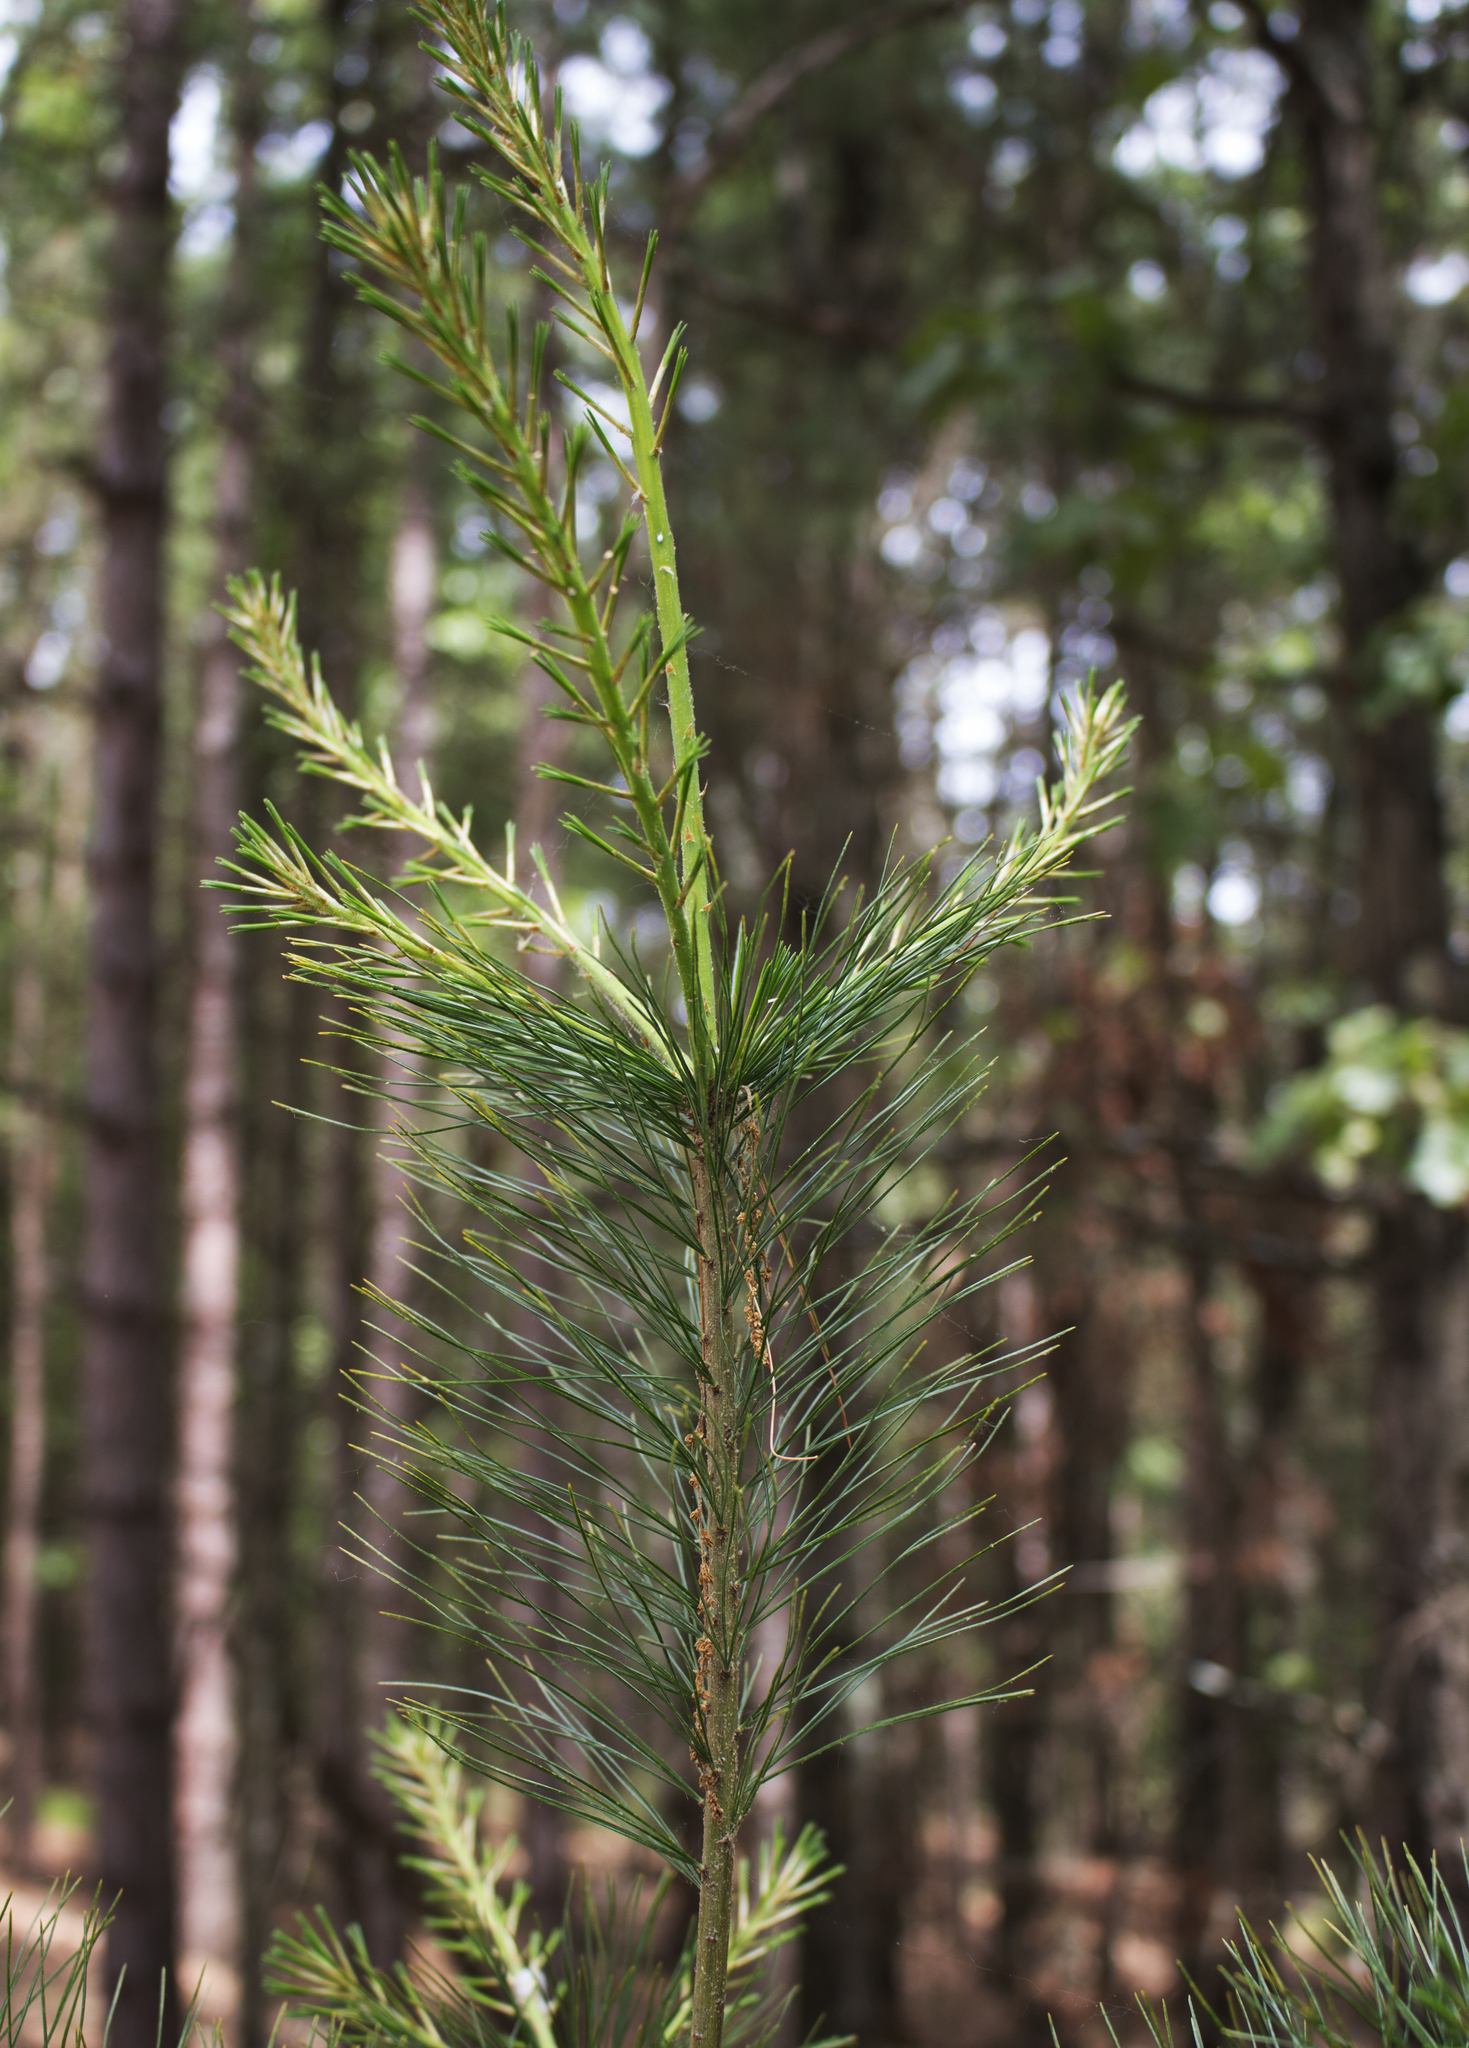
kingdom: Plantae
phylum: Tracheophyta
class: Pinopsida
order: Pinales
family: Pinaceae
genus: Pinus
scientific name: Pinus strobus
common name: Weymouth pine
